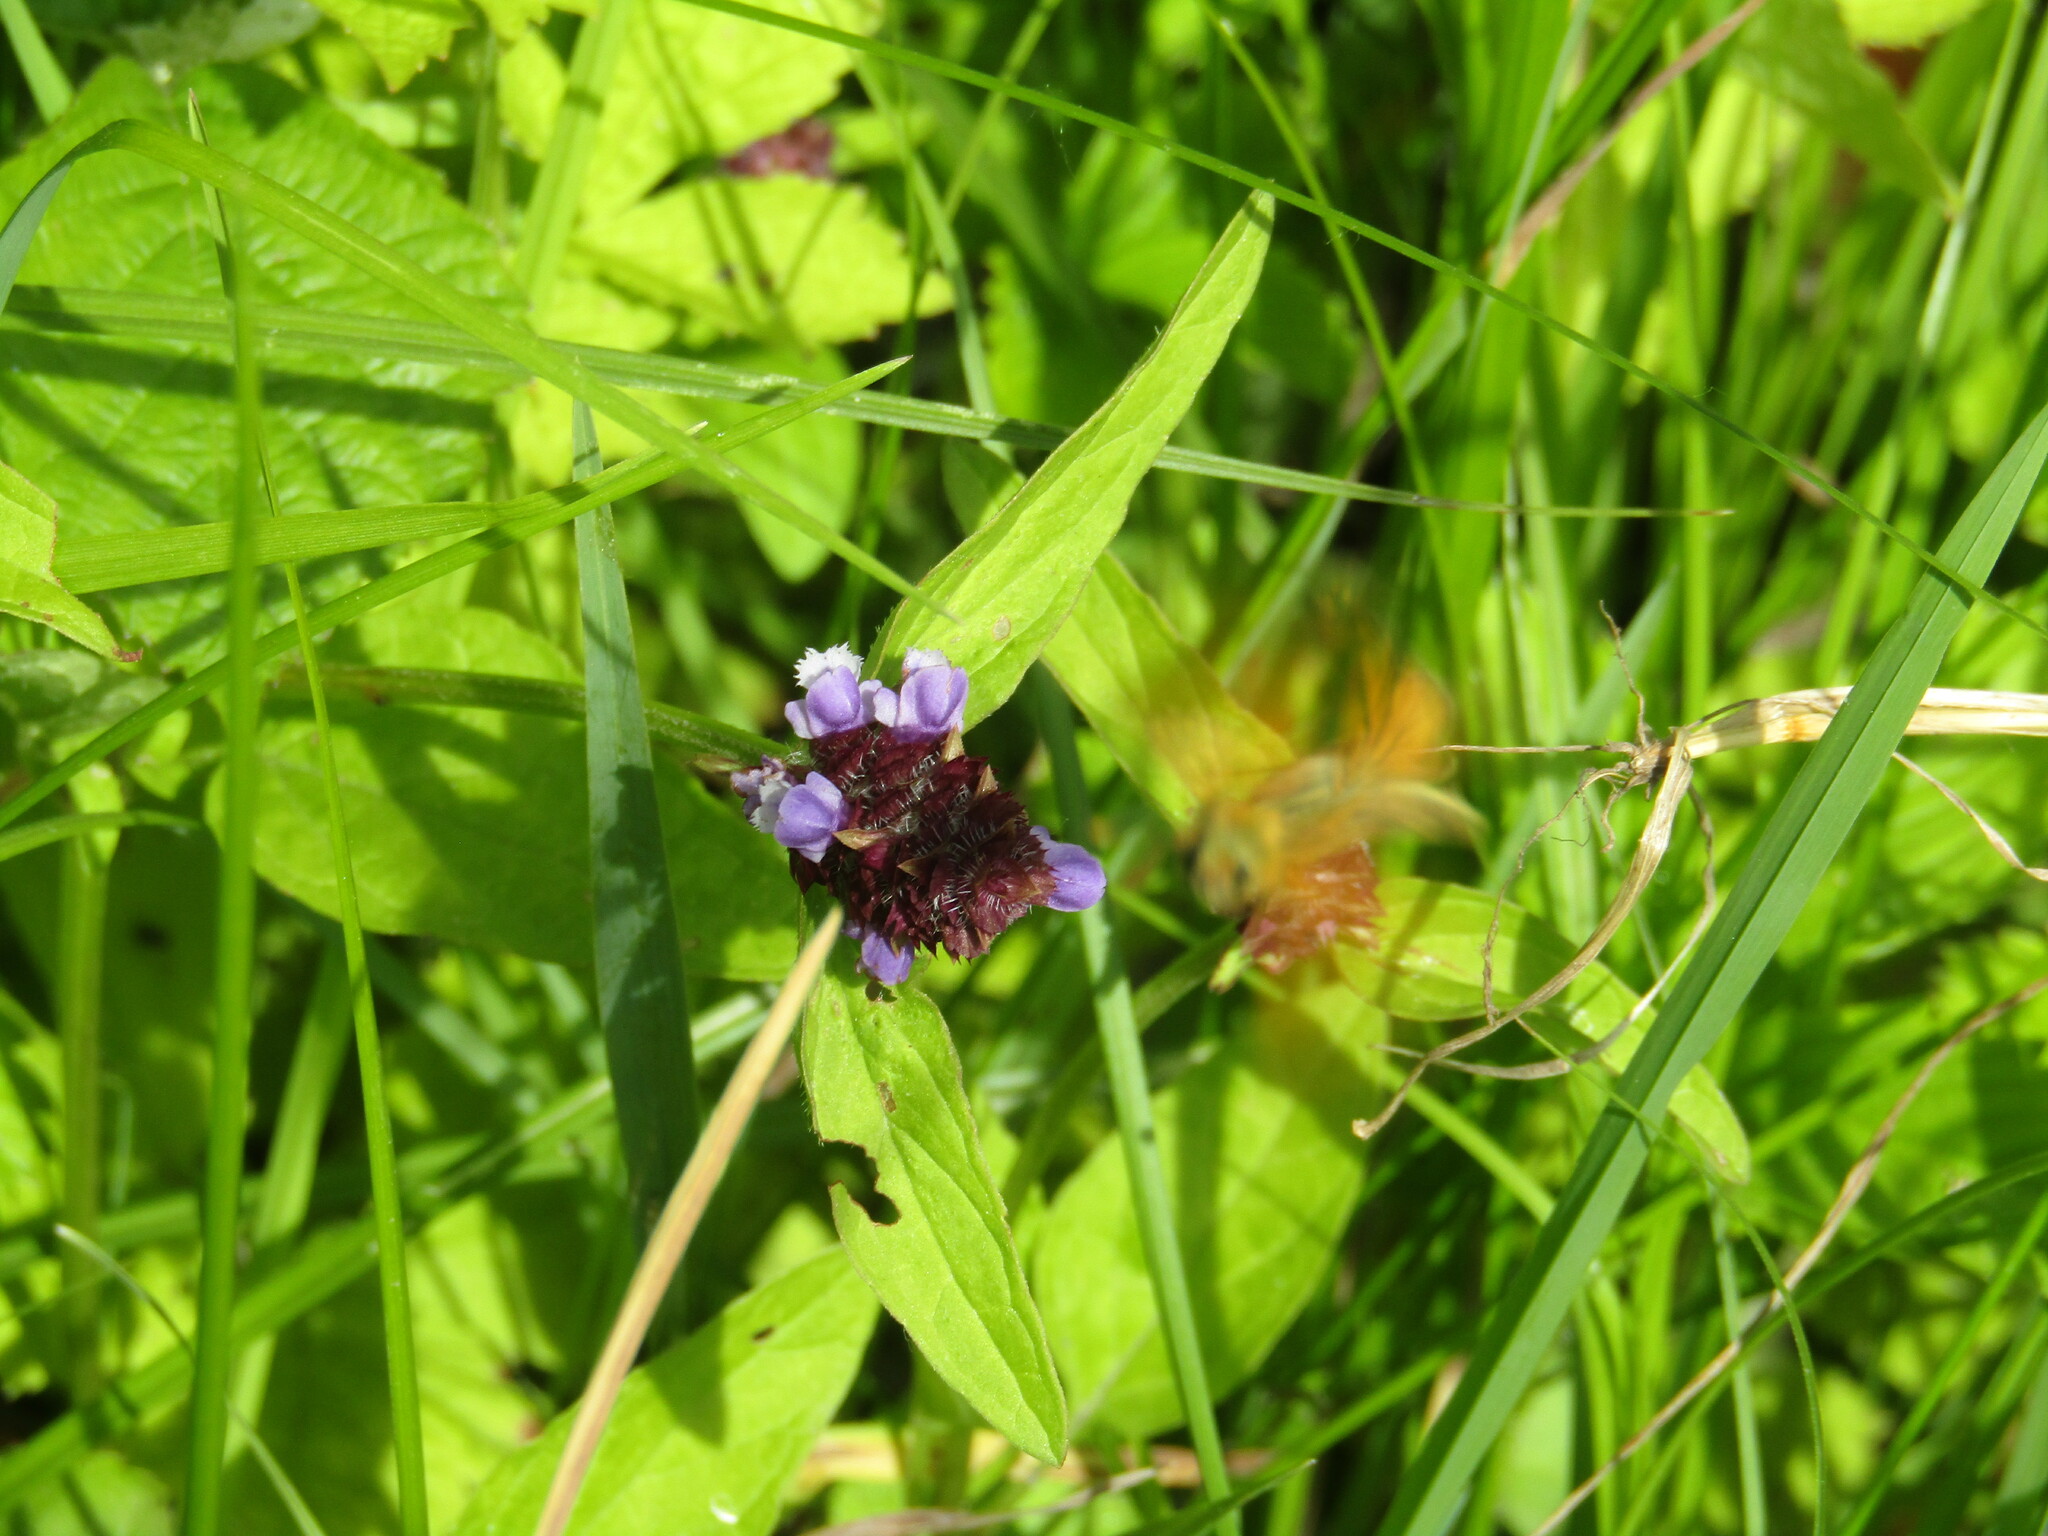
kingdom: Plantae
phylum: Tracheophyta
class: Magnoliopsida
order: Lamiales
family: Lamiaceae
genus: Prunella
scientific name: Prunella vulgaris
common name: Heal-all
